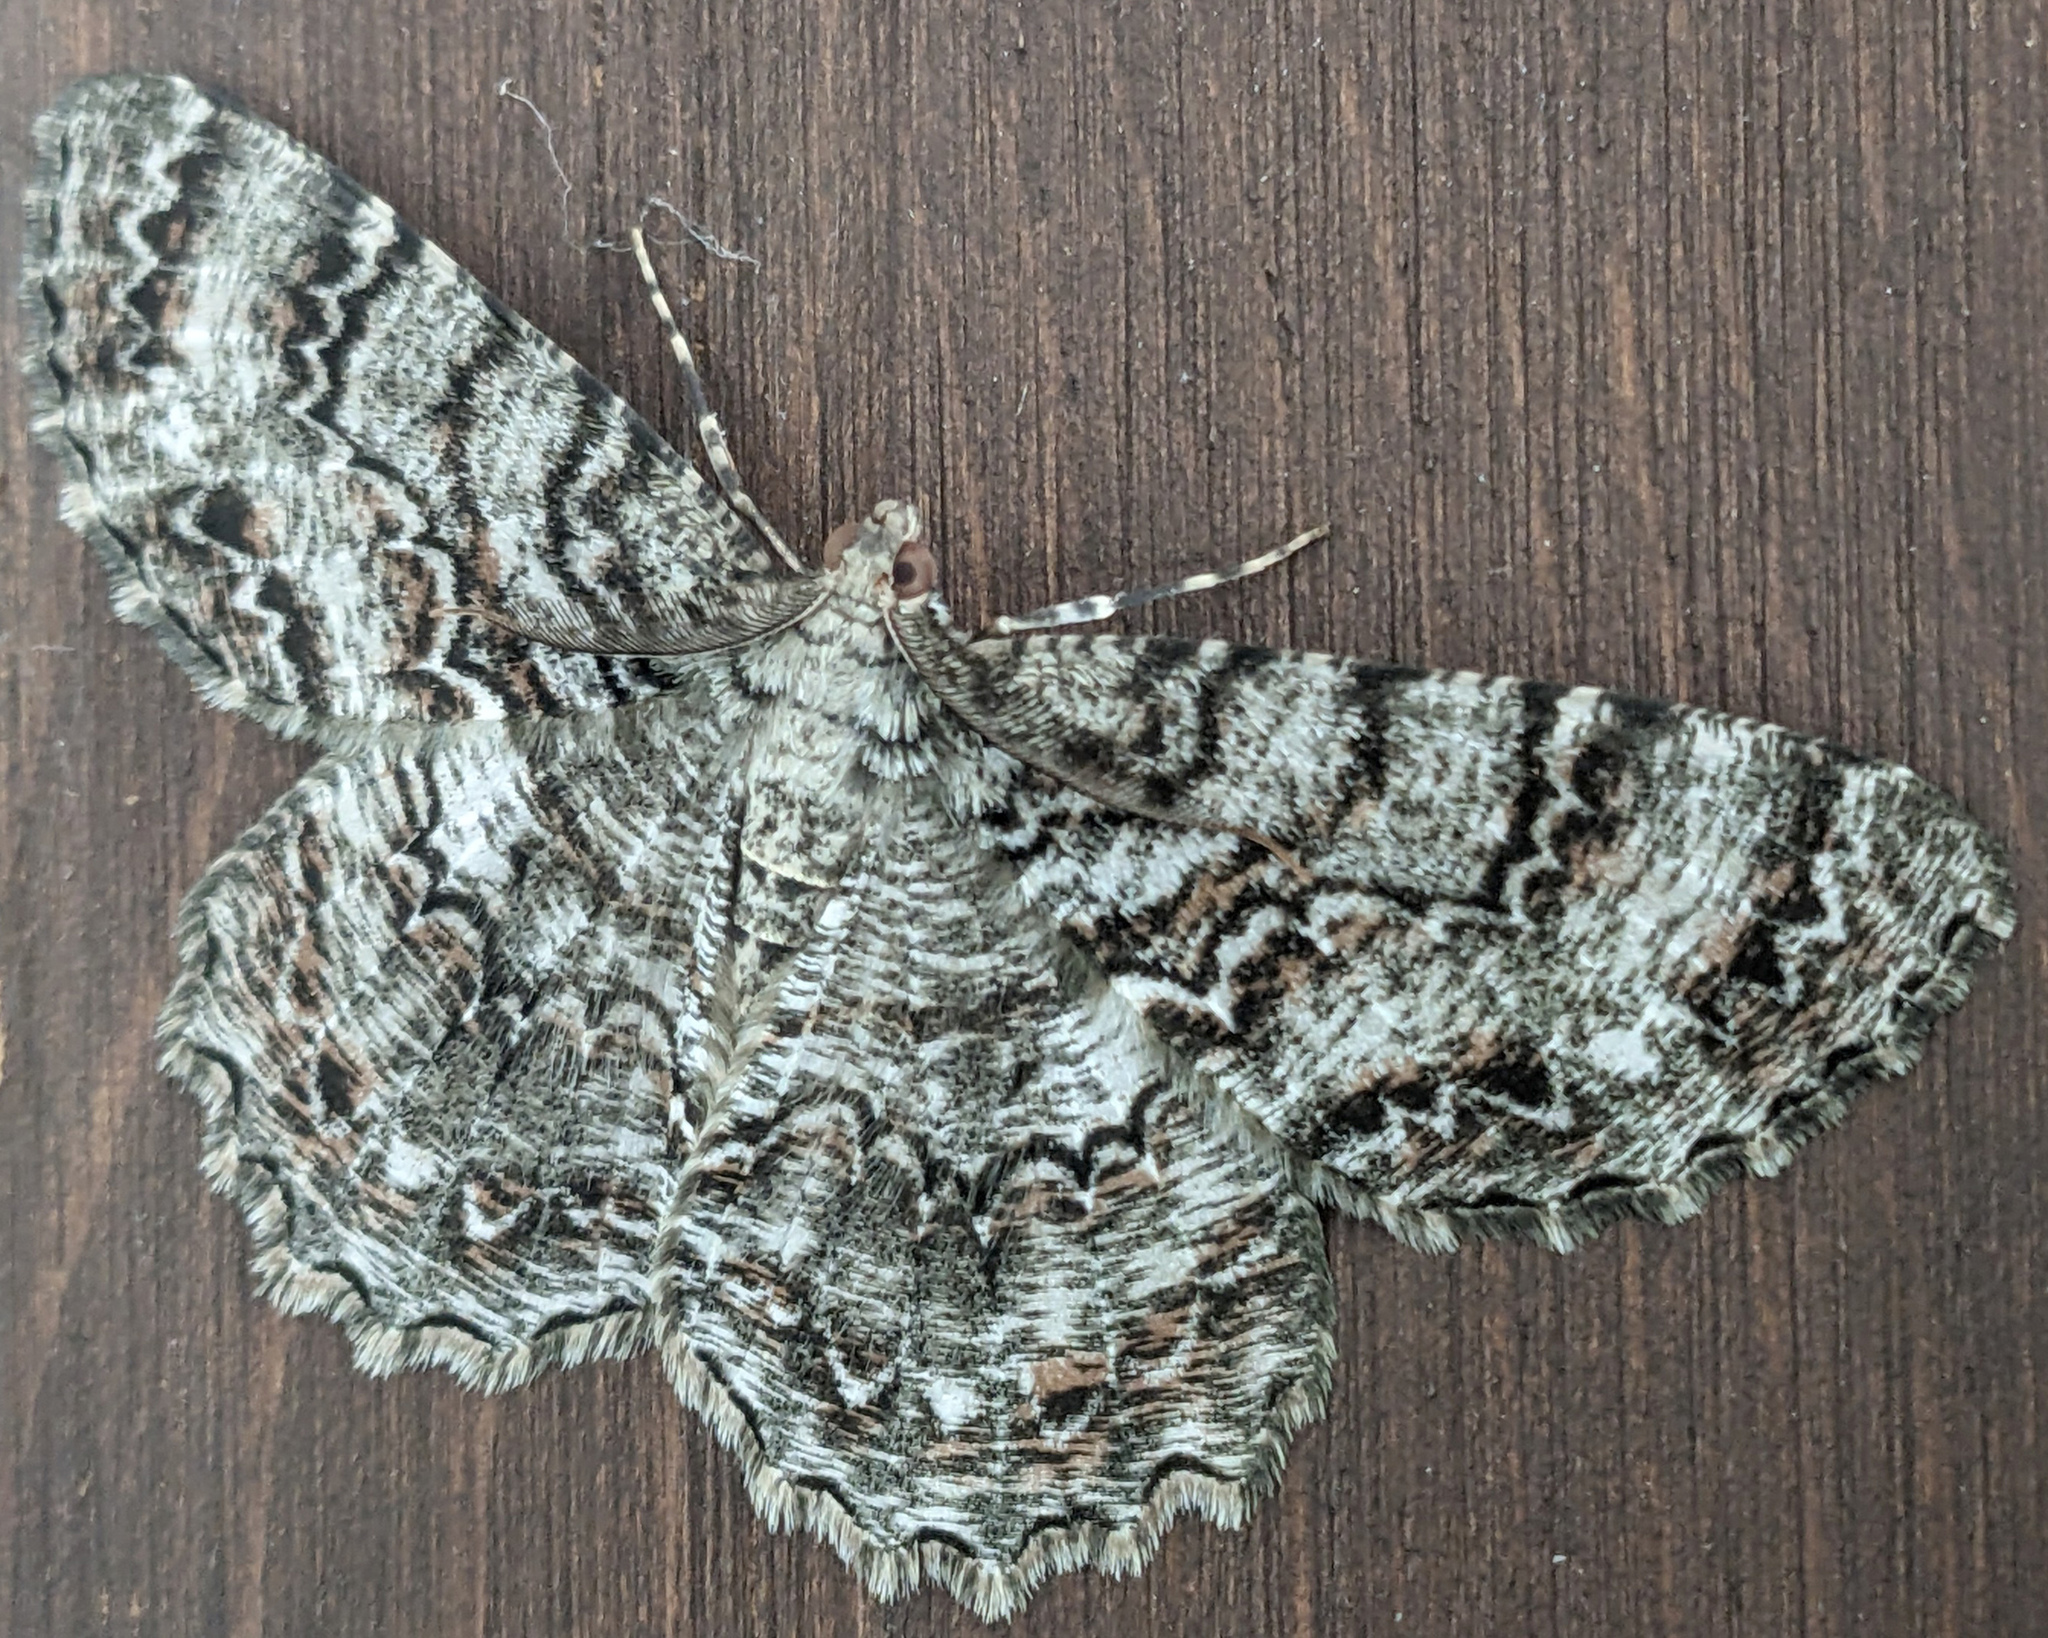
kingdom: Animalia
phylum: Arthropoda
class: Insecta
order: Lepidoptera
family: Geometridae
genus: Epimecis
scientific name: Epimecis hortaria
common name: Tulip-tree beauty
